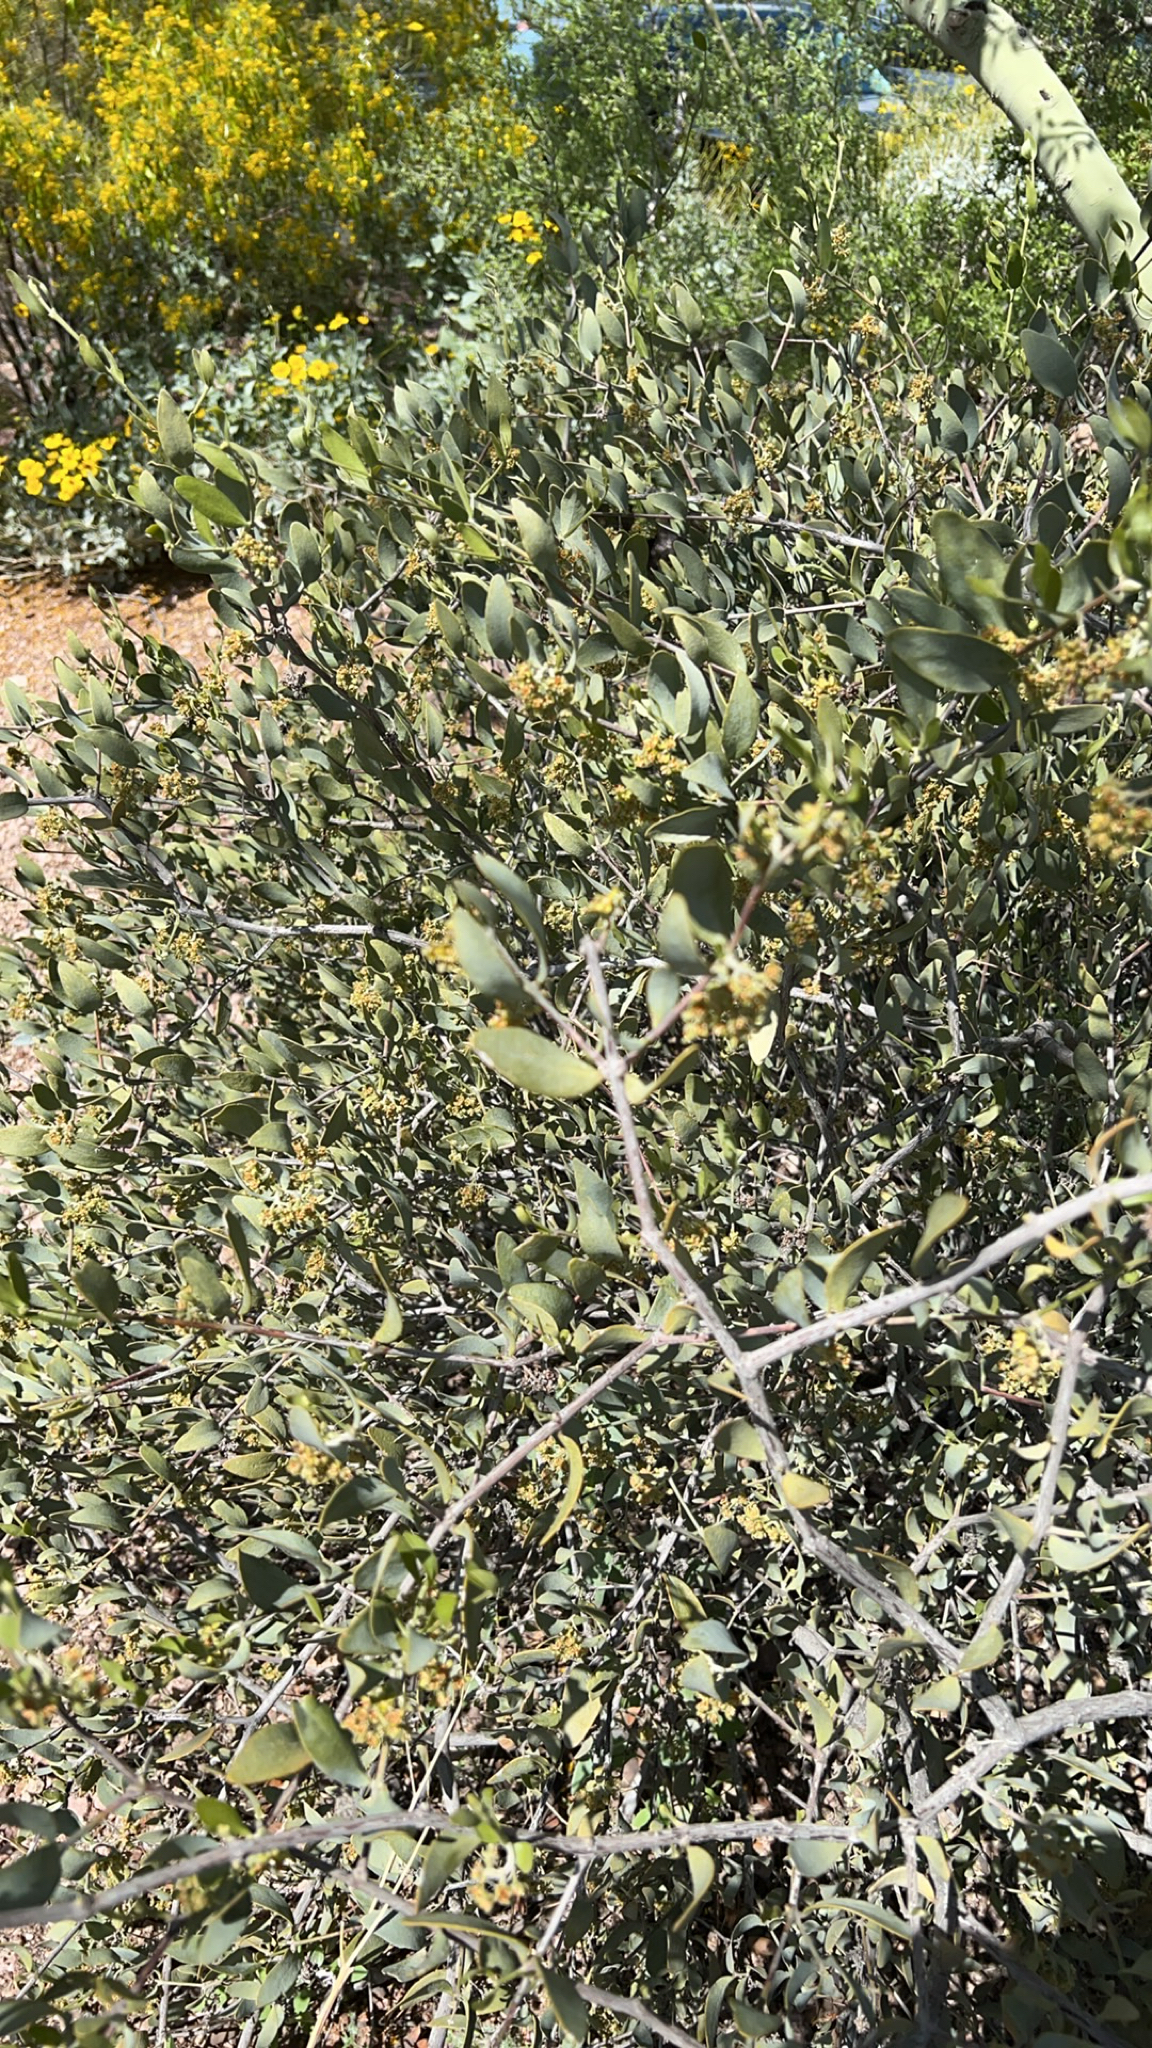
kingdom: Plantae
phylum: Tracheophyta
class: Magnoliopsida
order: Caryophyllales
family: Simmondsiaceae
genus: Simmondsia
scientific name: Simmondsia chinensis
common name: Jojoba
